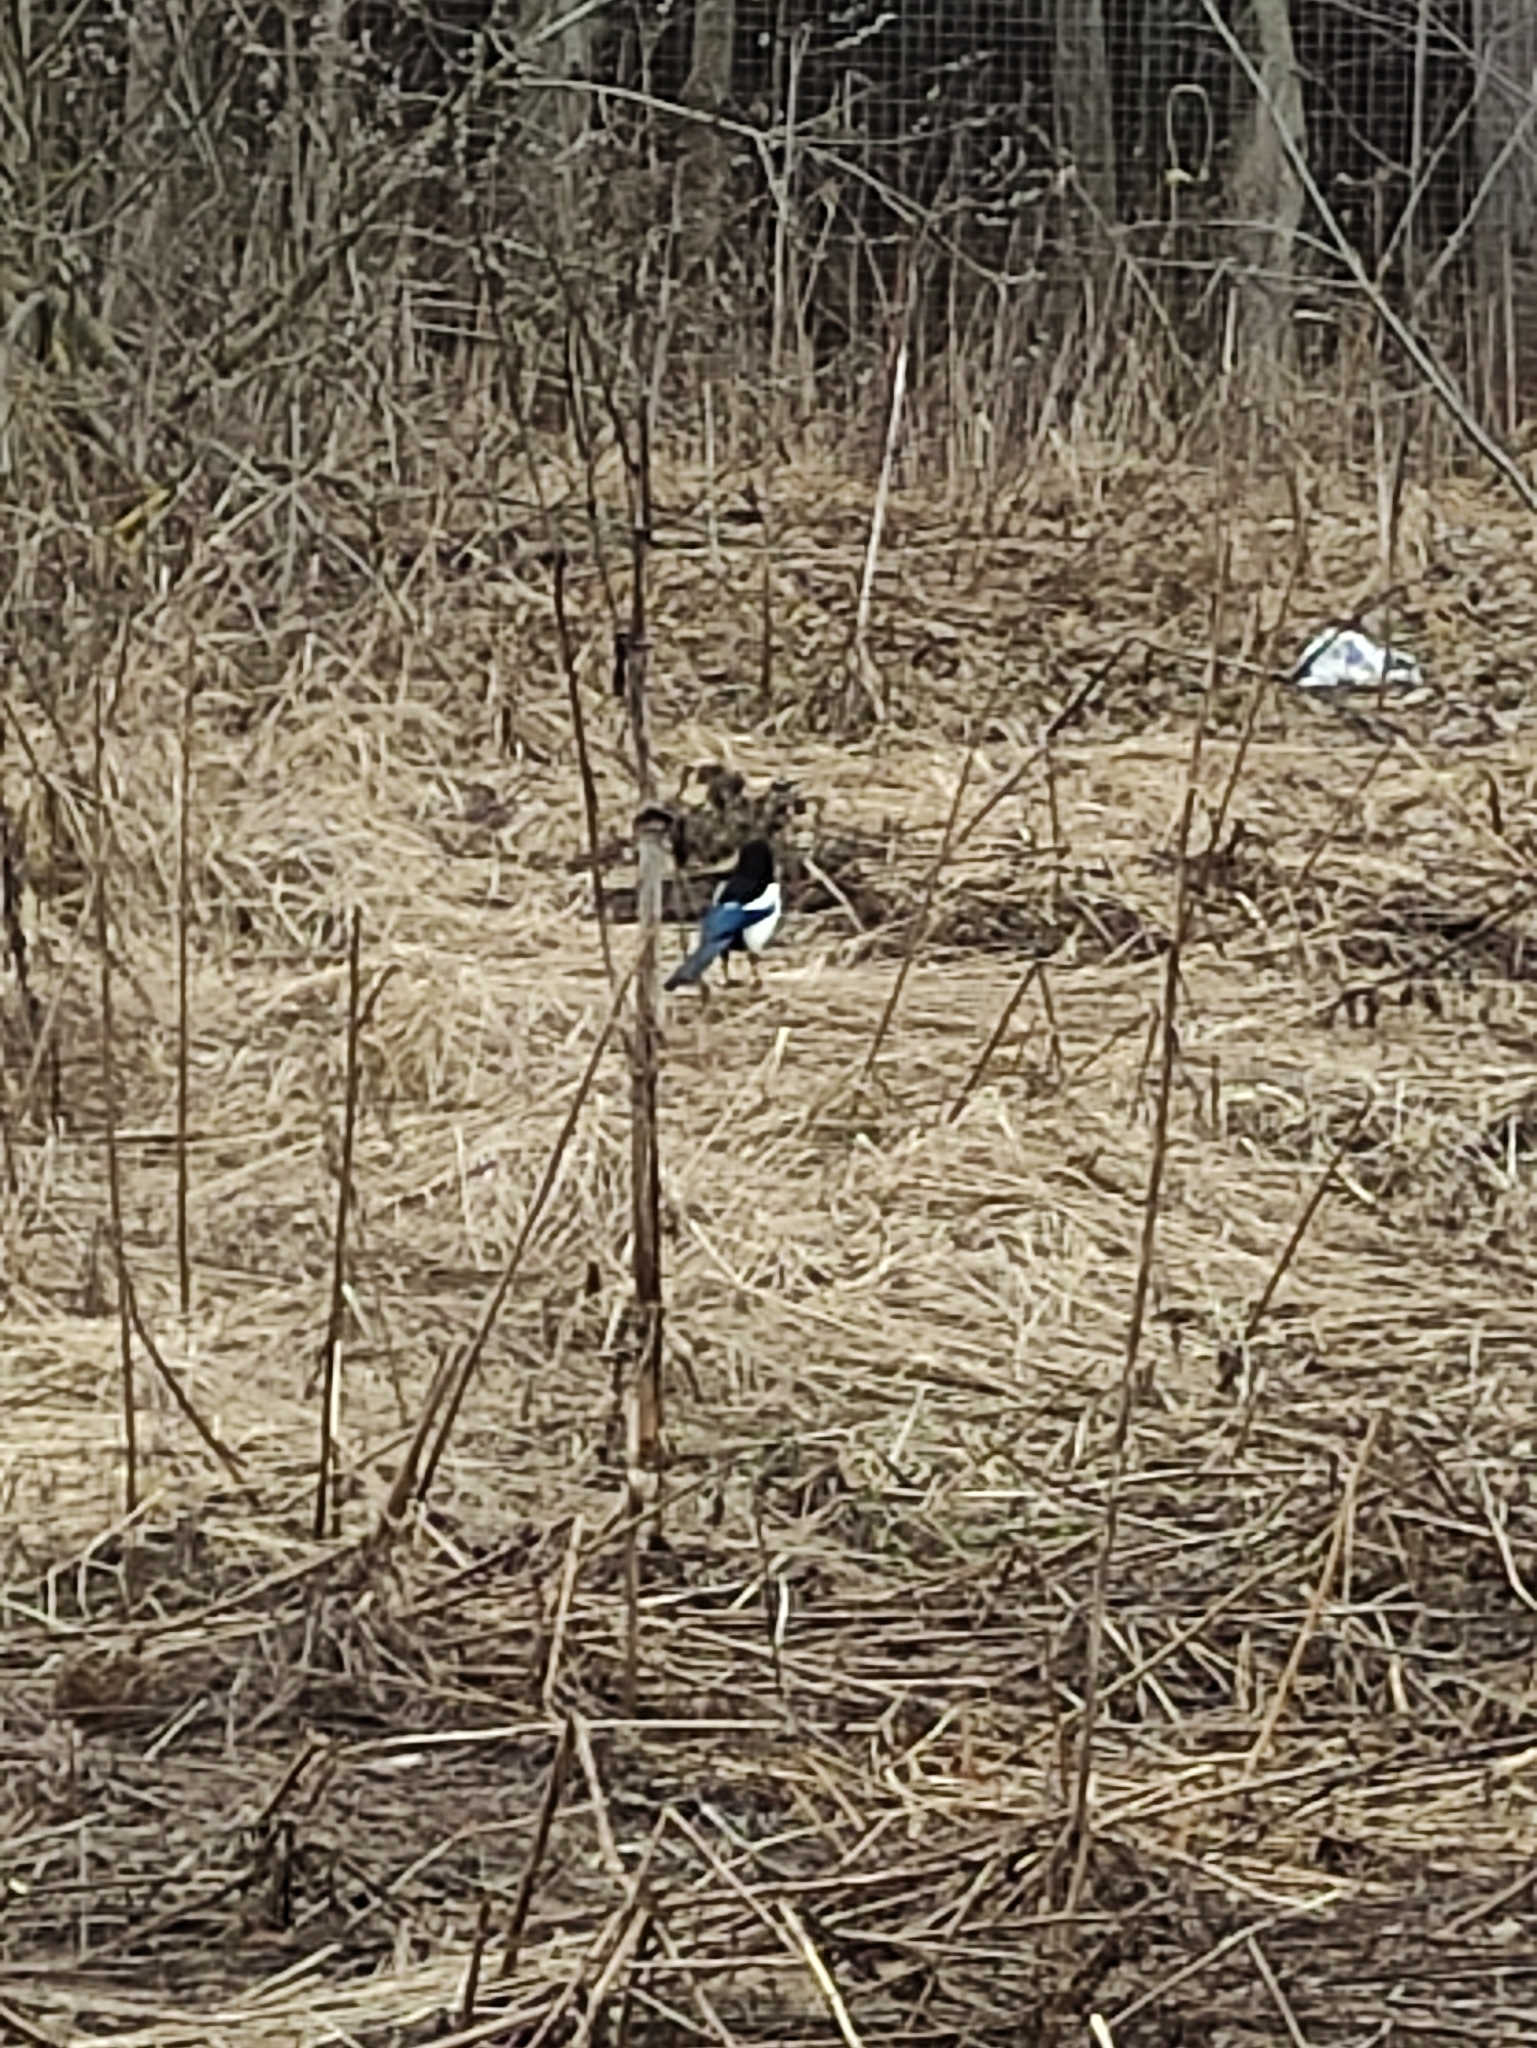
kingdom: Animalia
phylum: Chordata
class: Aves
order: Passeriformes
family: Corvidae
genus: Pica
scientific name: Pica pica
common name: Eurasian magpie
